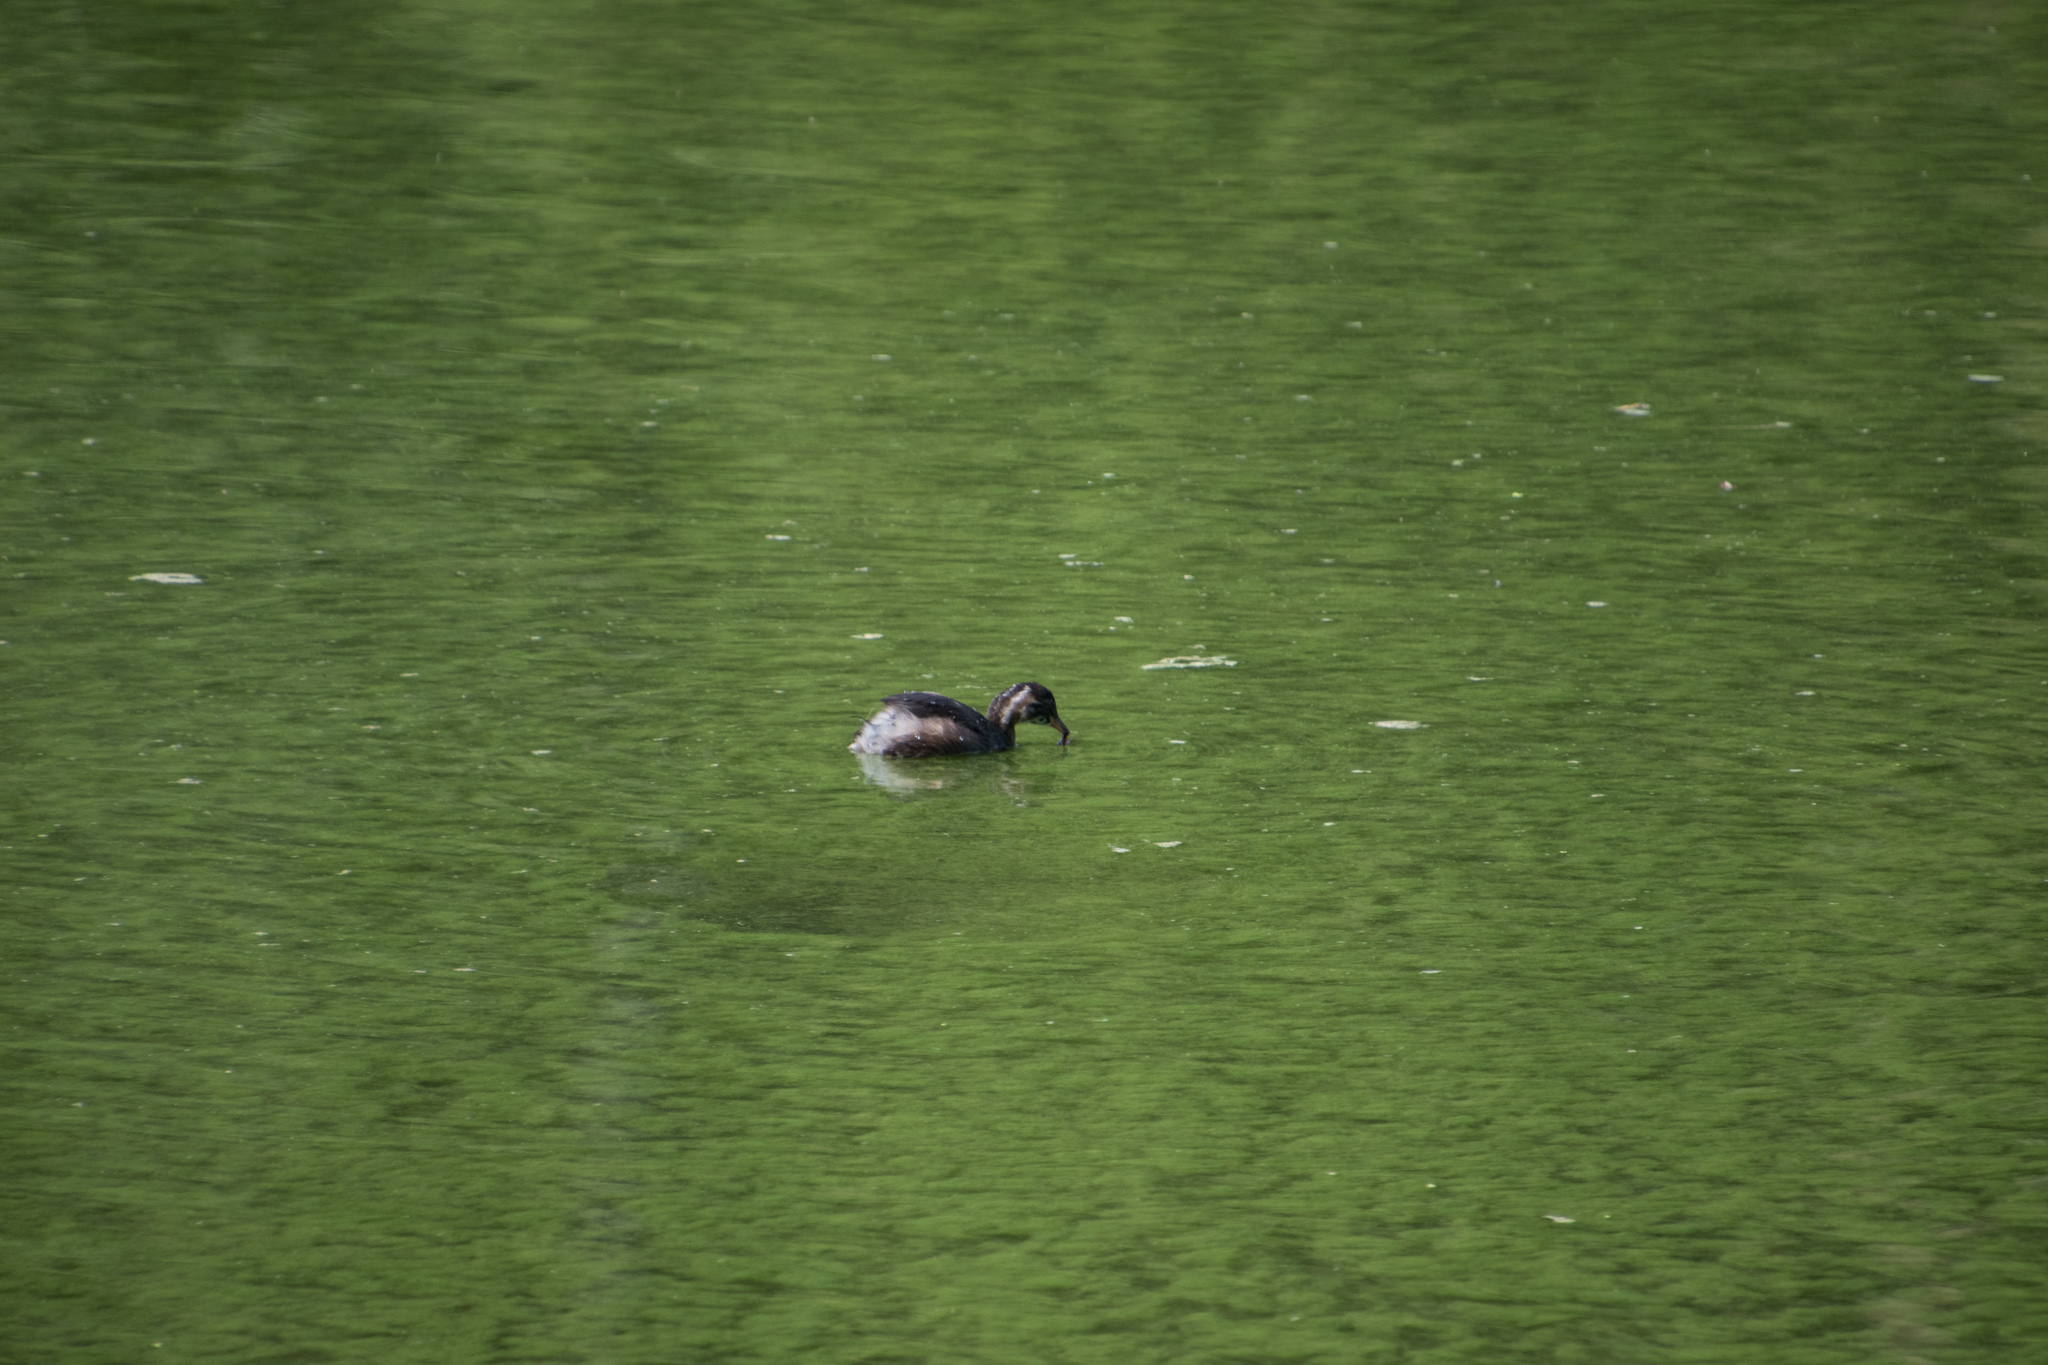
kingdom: Animalia
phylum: Chordata
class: Aves
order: Podicipediformes
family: Podicipedidae
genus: Tachybaptus
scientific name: Tachybaptus ruficollis
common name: Little grebe
